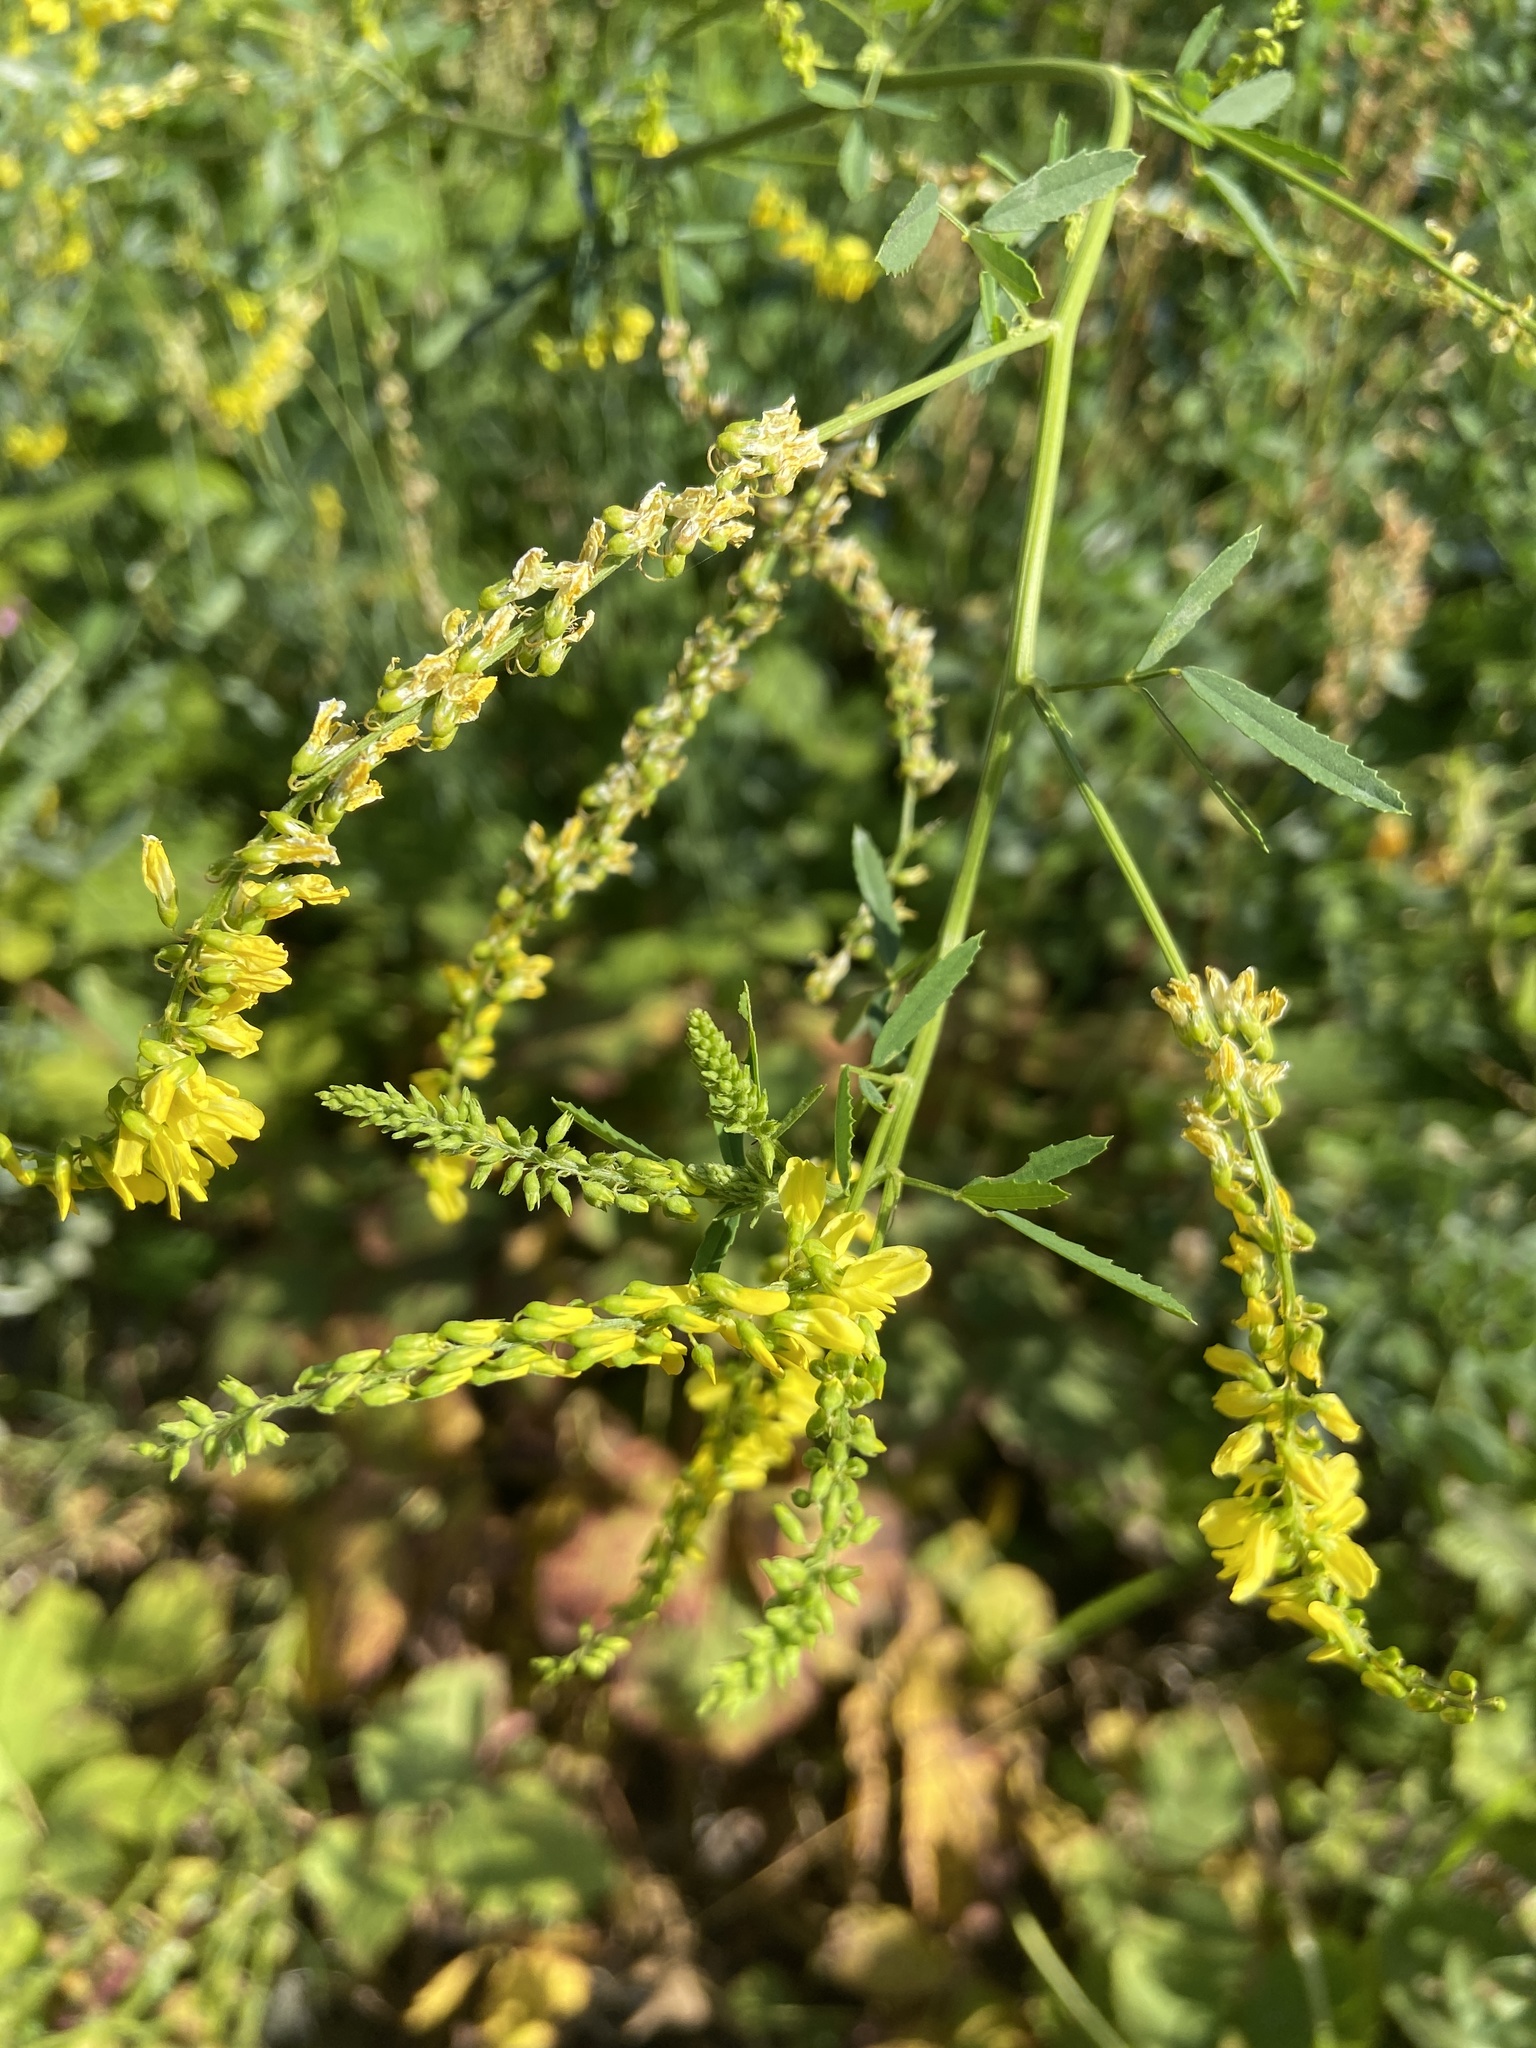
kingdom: Plantae
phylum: Tracheophyta
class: Magnoliopsida
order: Fabales
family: Fabaceae
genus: Melilotus
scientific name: Melilotus officinalis
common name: Sweetclover
